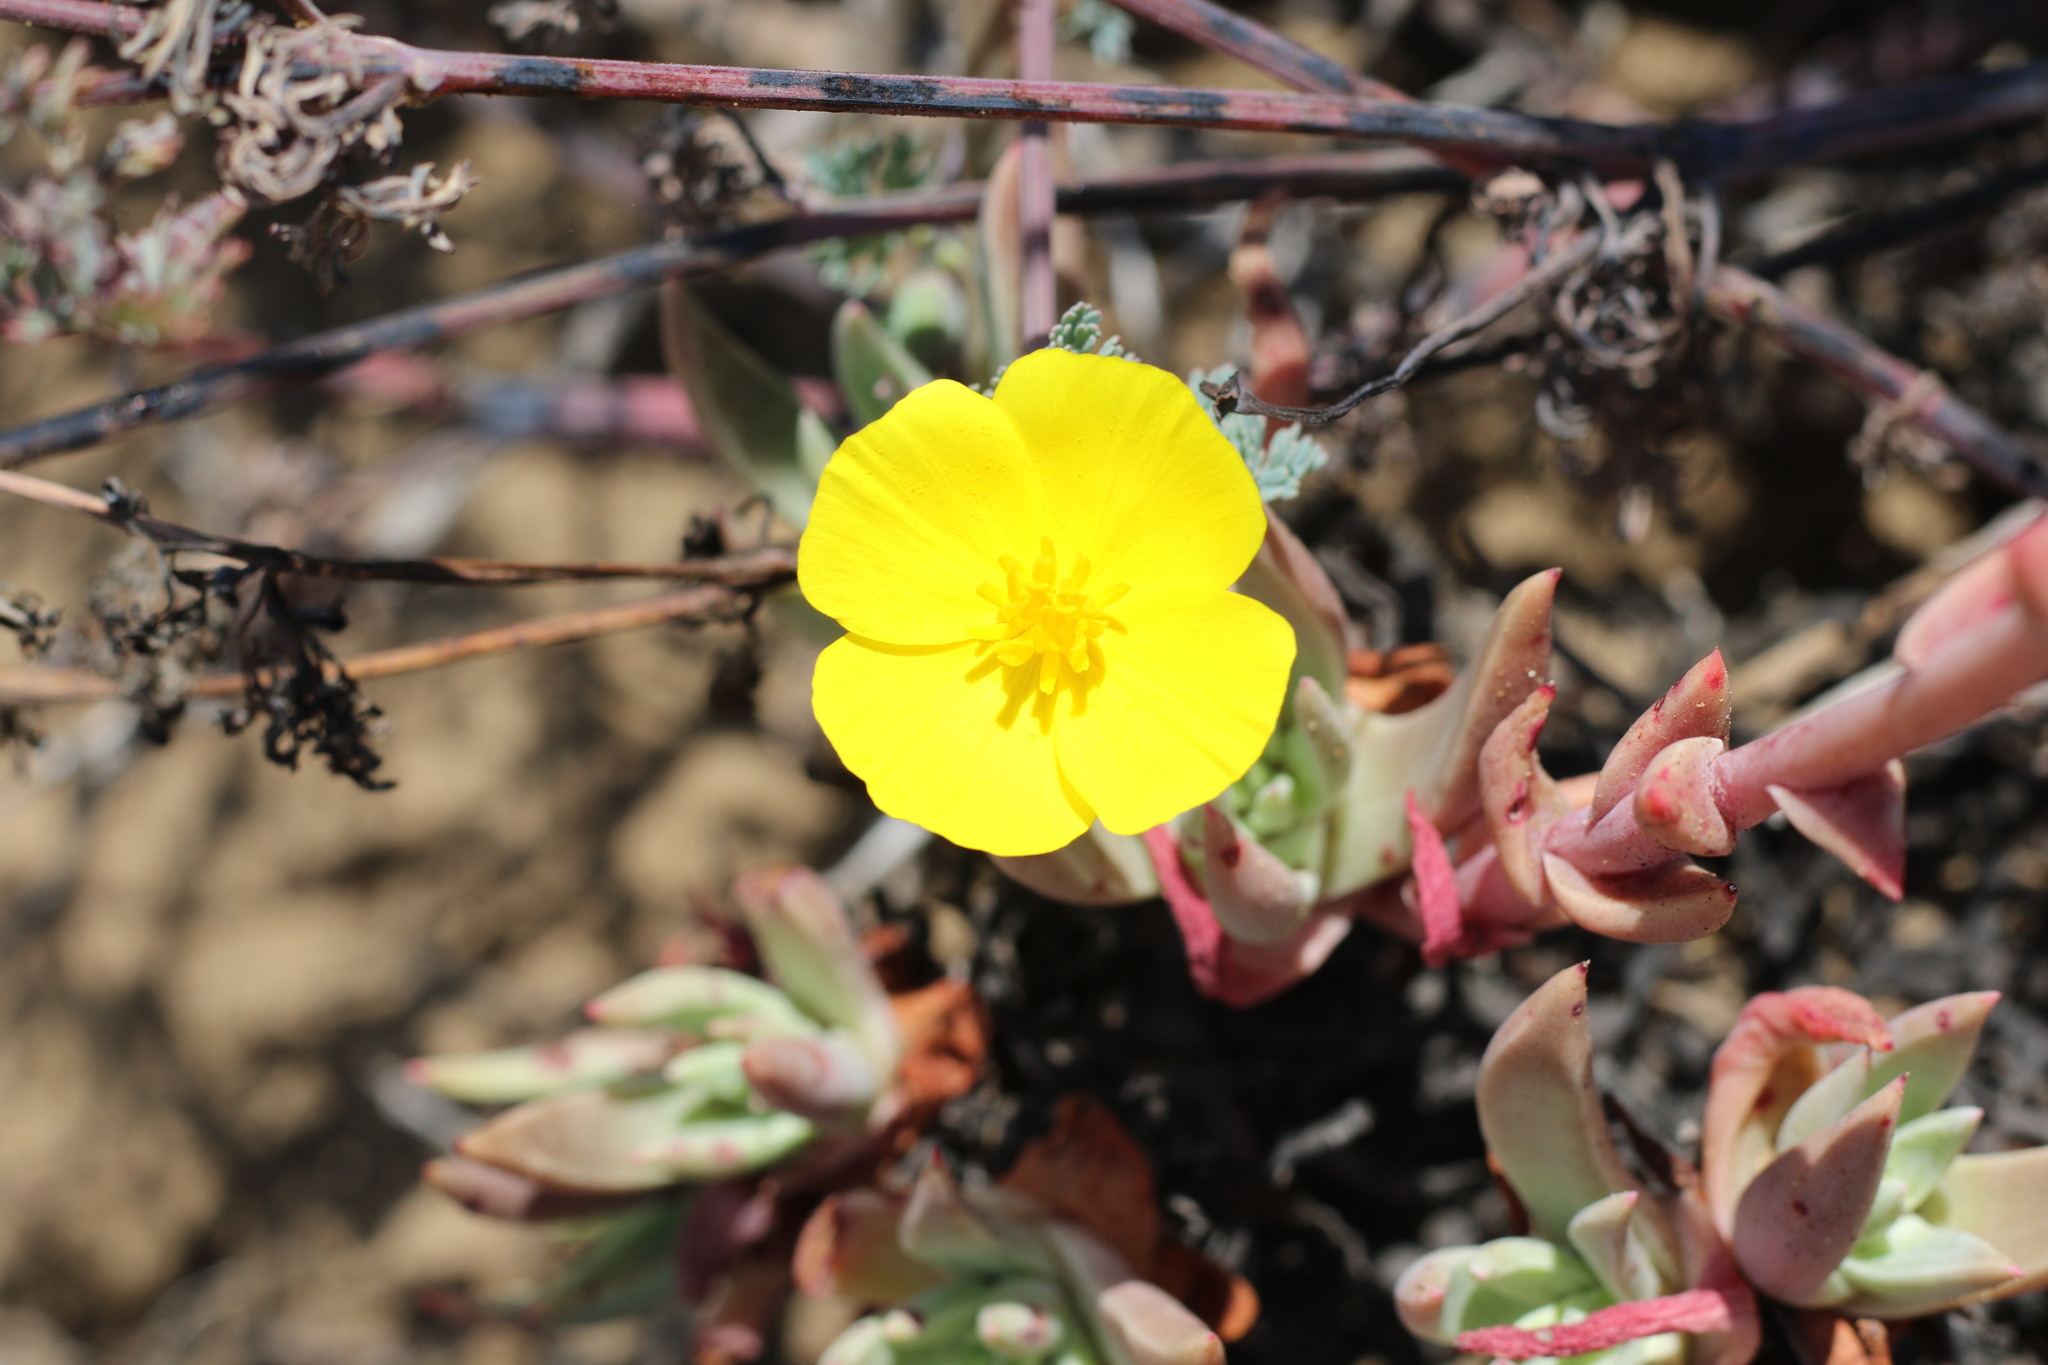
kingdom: Plantae
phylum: Tracheophyta
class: Magnoliopsida
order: Ranunculales
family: Papaveraceae
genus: Eschscholzia
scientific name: Eschscholzia californica
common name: California poppy
